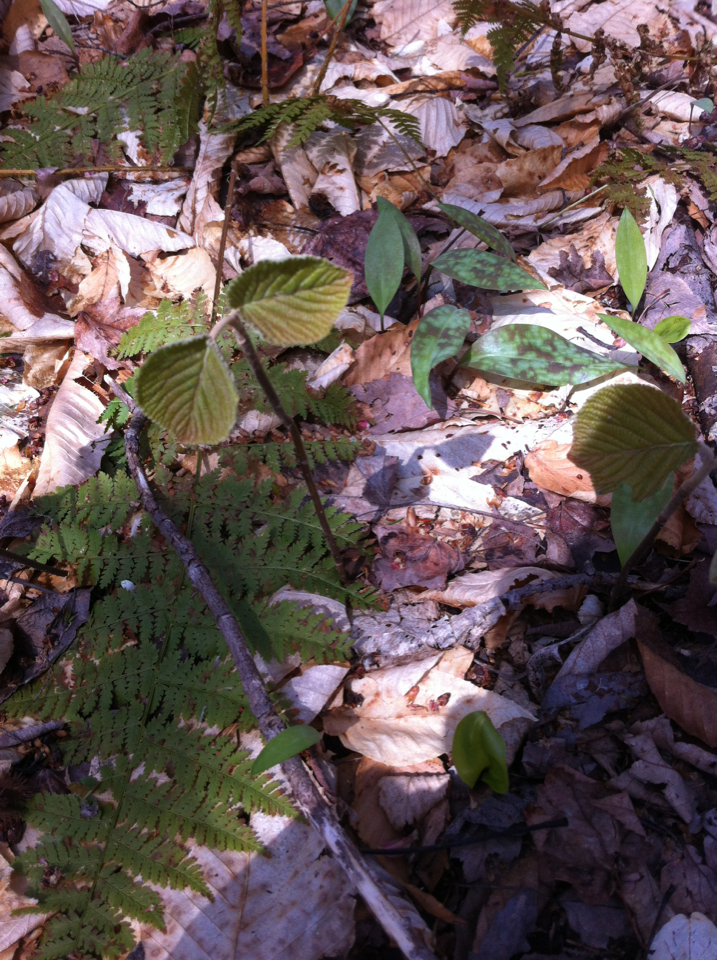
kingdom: Plantae
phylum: Tracheophyta
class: Magnoliopsida
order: Dipsacales
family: Viburnaceae
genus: Viburnum
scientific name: Viburnum lantanoides
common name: Hobblebush
